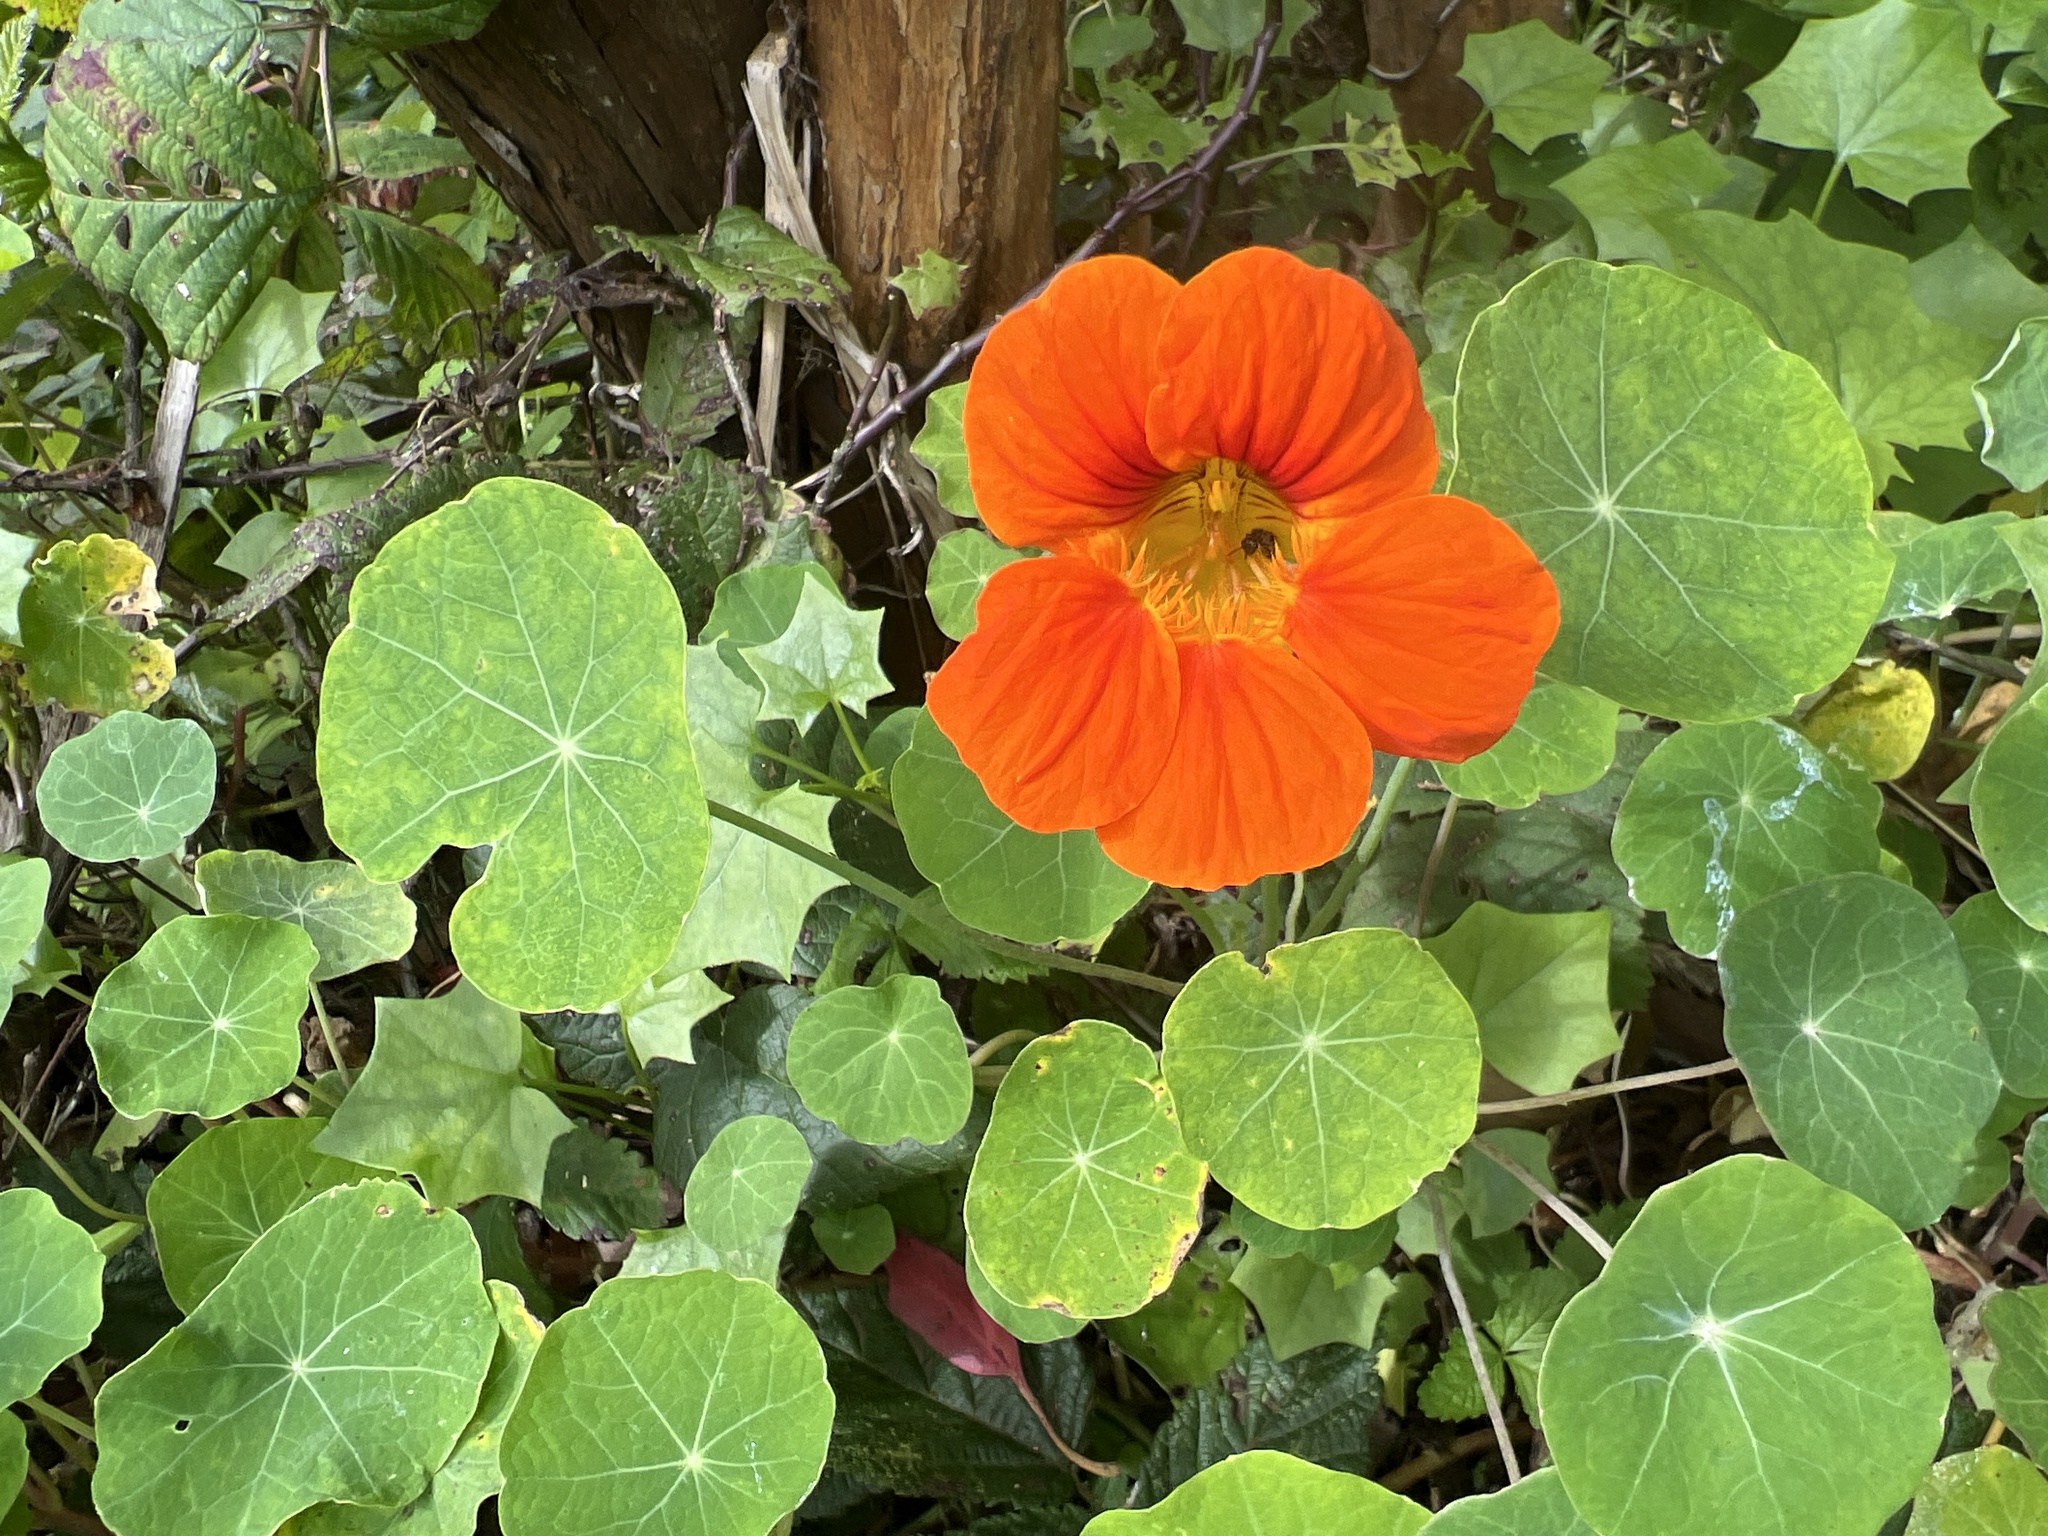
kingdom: Plantae
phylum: Tracheophyta
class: Magnoliopsida
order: Brassicales
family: Tropaeolaceae
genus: Tropaeolum
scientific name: Tropaeolum majus
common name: Nasturtium
